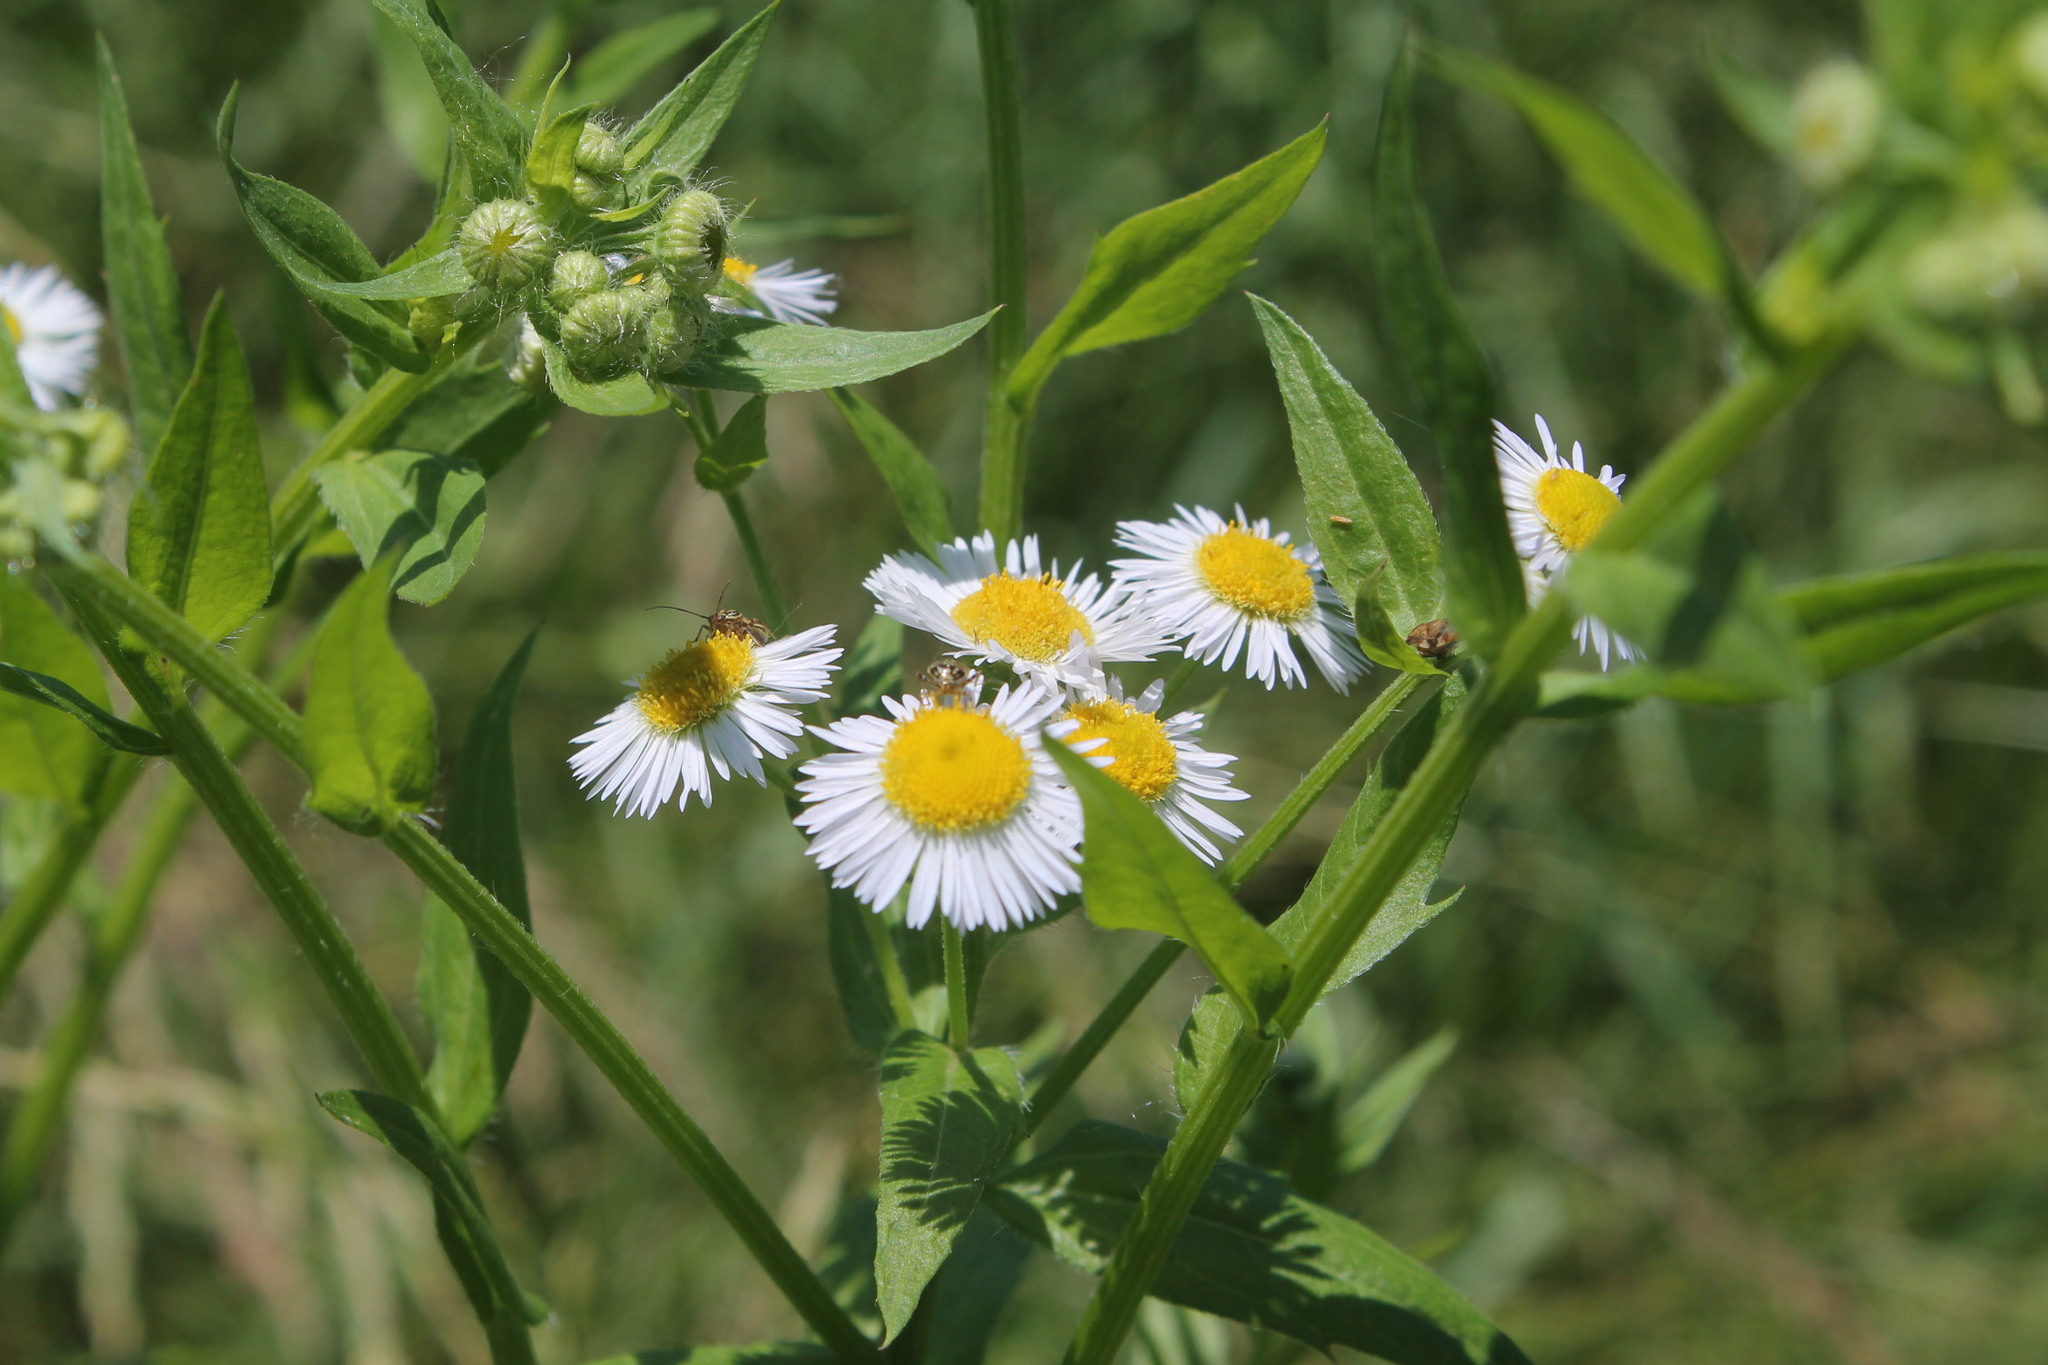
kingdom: Plantae
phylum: Tracheophyta
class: Magnoliopsida
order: Asterales
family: Asteraceae
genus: Erigeron
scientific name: Erigeron annuus
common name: Tall fleabane
